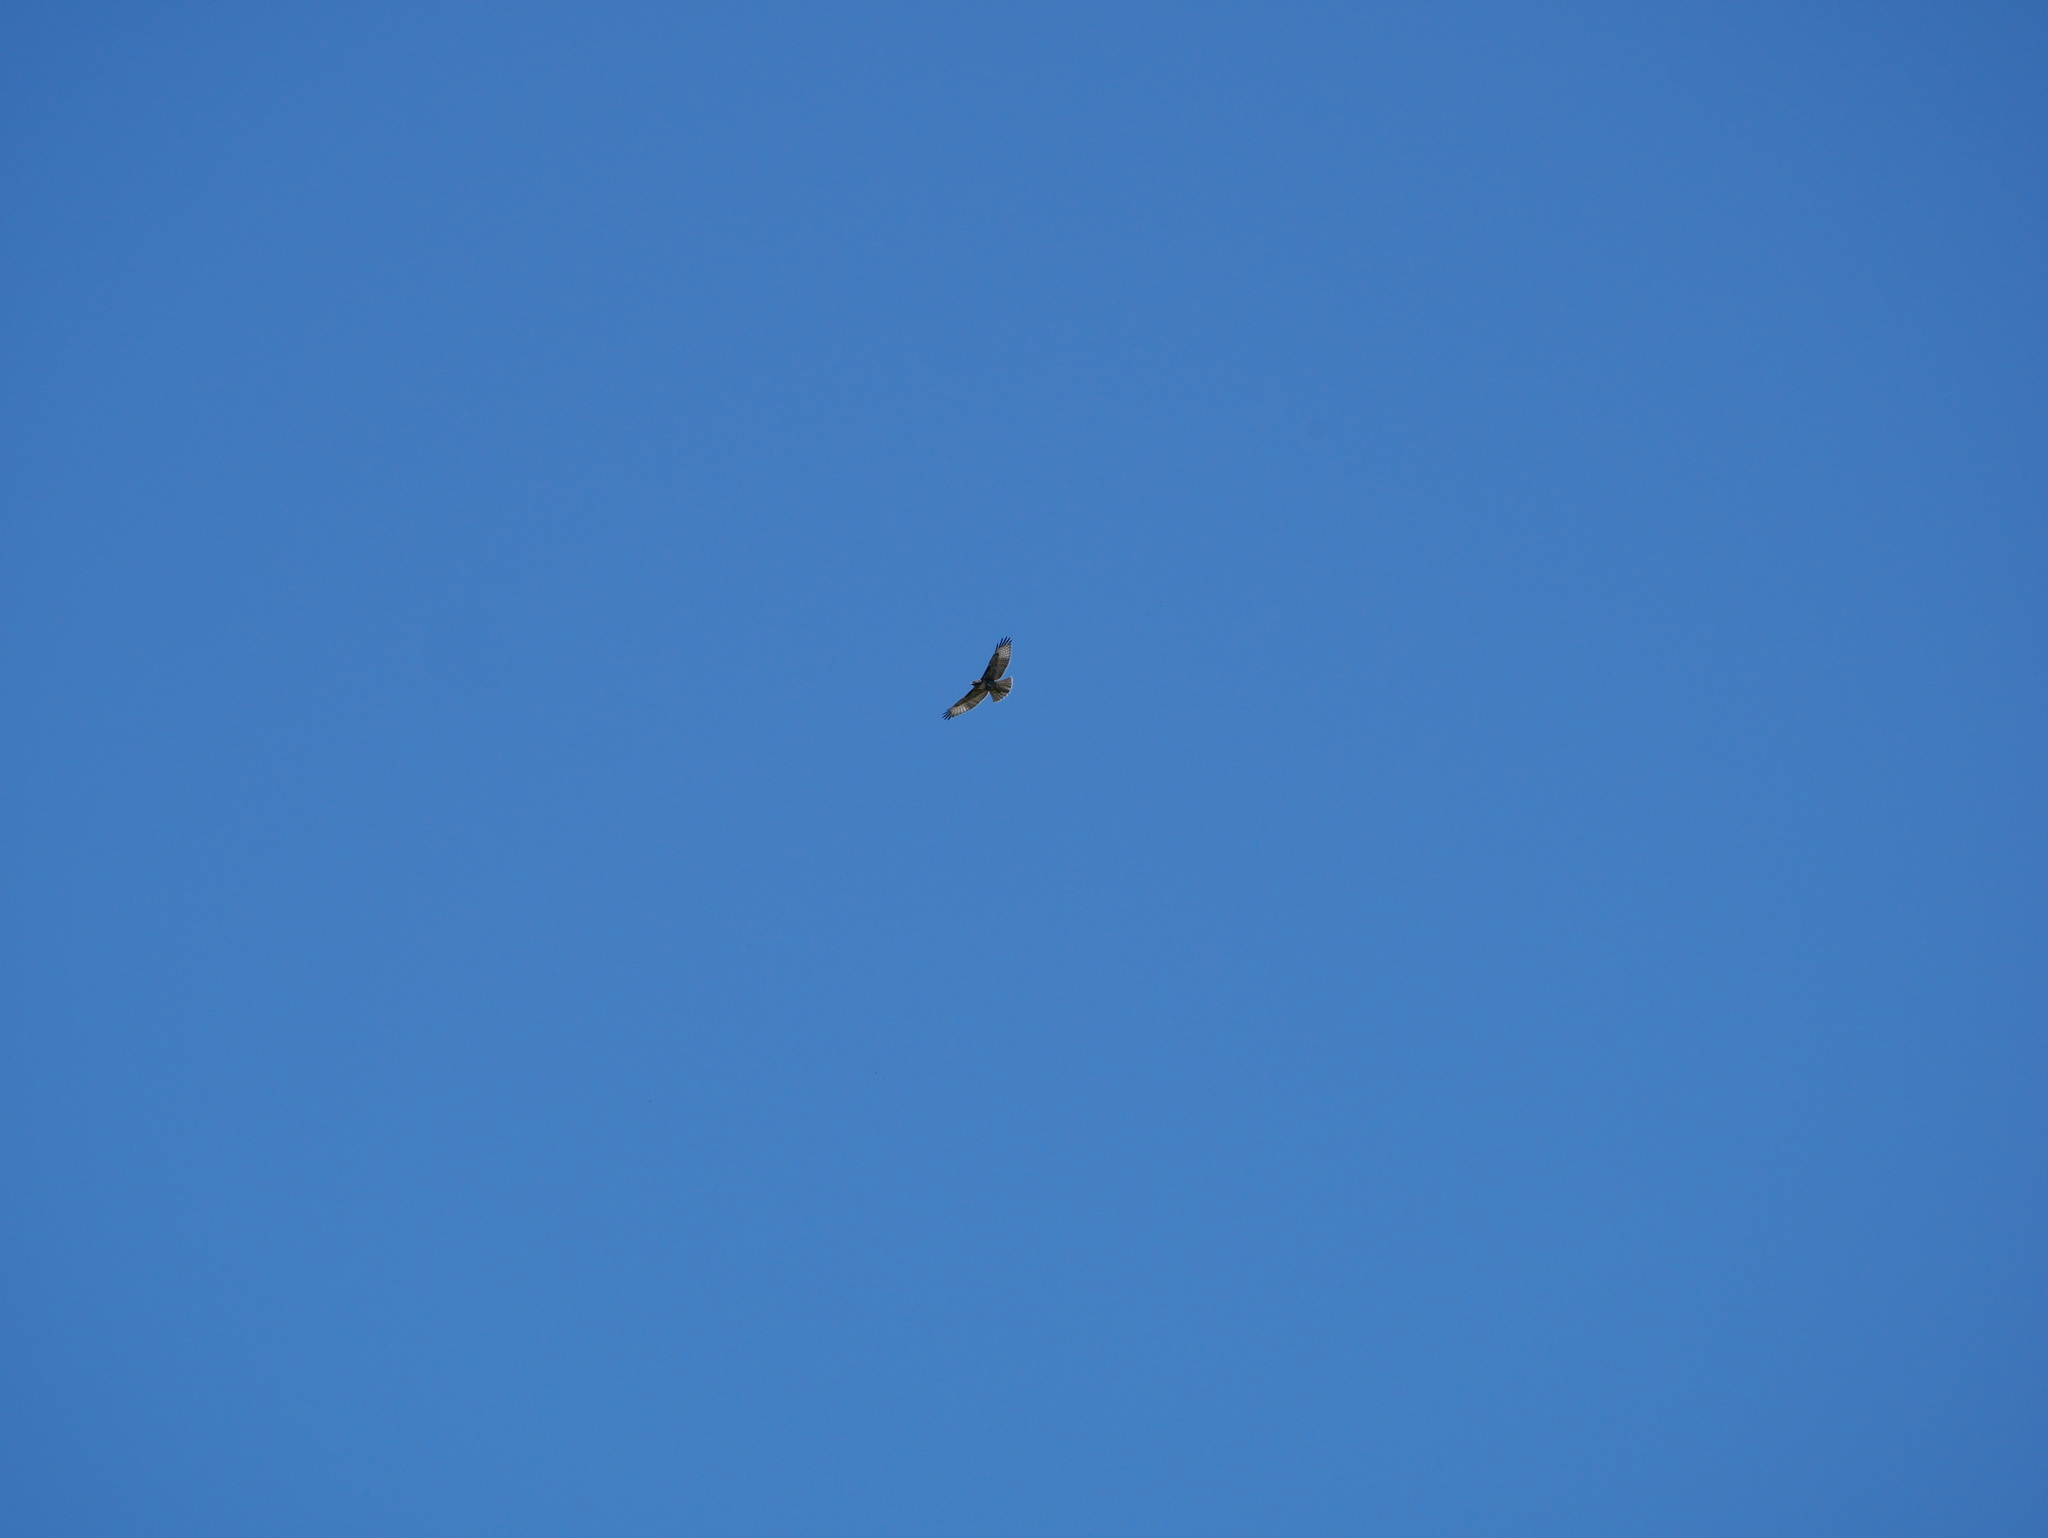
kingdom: Animalia
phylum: Chordata
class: Aves
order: Accipitriformes
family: Accipitridae
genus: Buteo
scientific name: Buteo jamaicensis
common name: Red-tailed hawk
